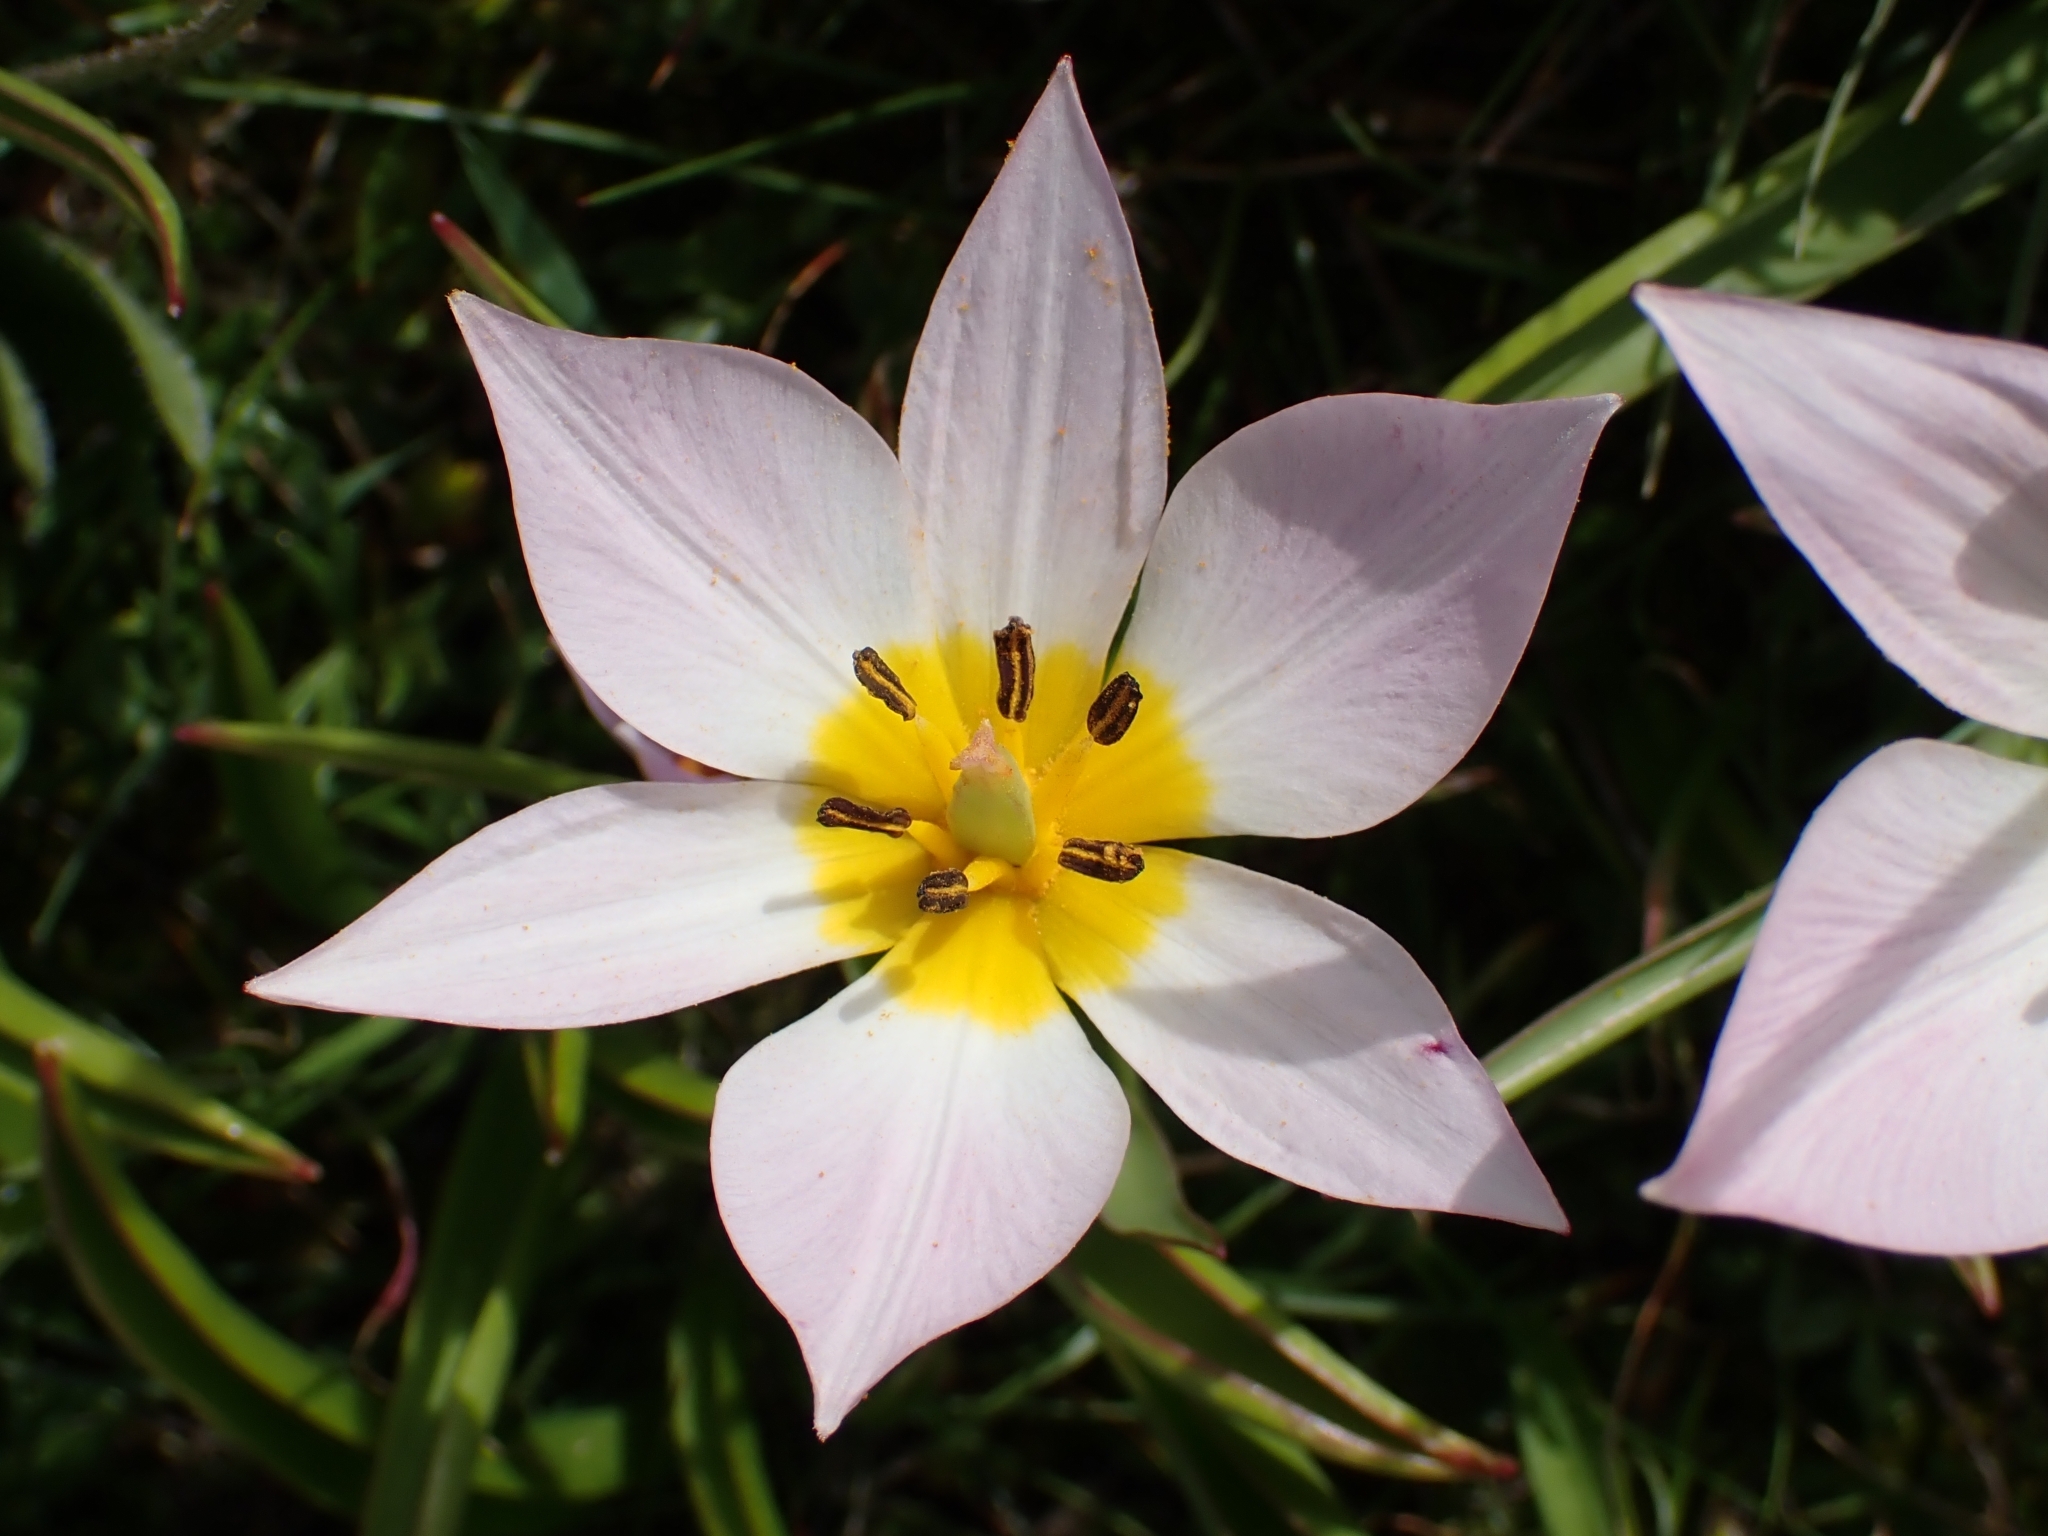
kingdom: Plantae
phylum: Tracheophyta
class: Liliopsida
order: Liliales
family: Liliaceae
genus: Tulipa
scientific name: Tulipa saxatilis
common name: Cretan tulip
